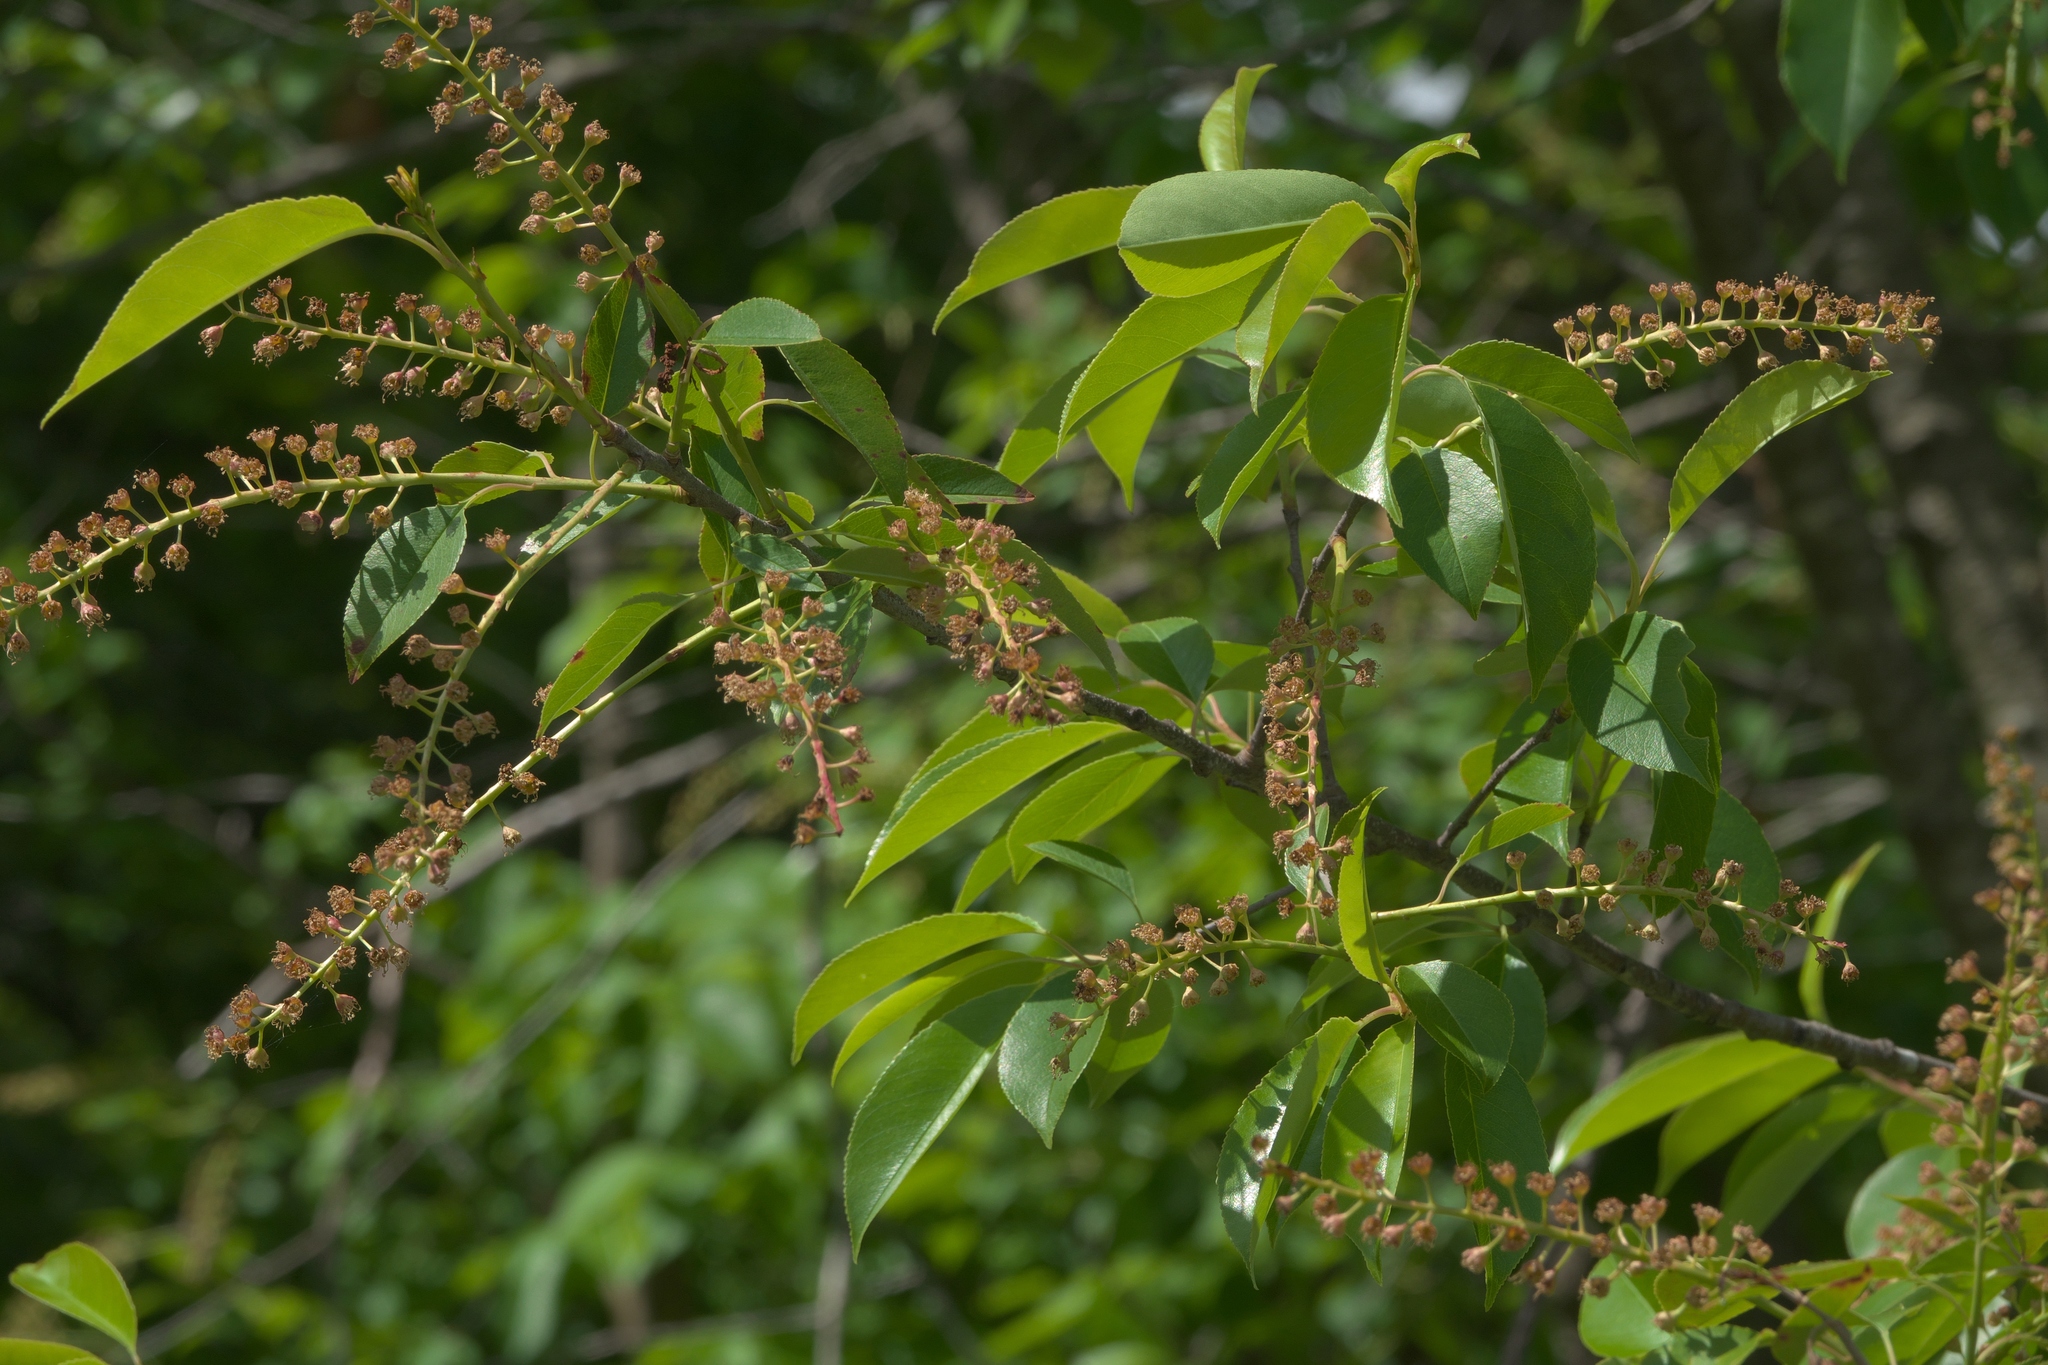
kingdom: Plantae
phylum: Tracheophyta
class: Magnoliopsida
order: Rosales
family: Rosaceae
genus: Prunus
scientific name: Prunus serotina
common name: Black cherry
